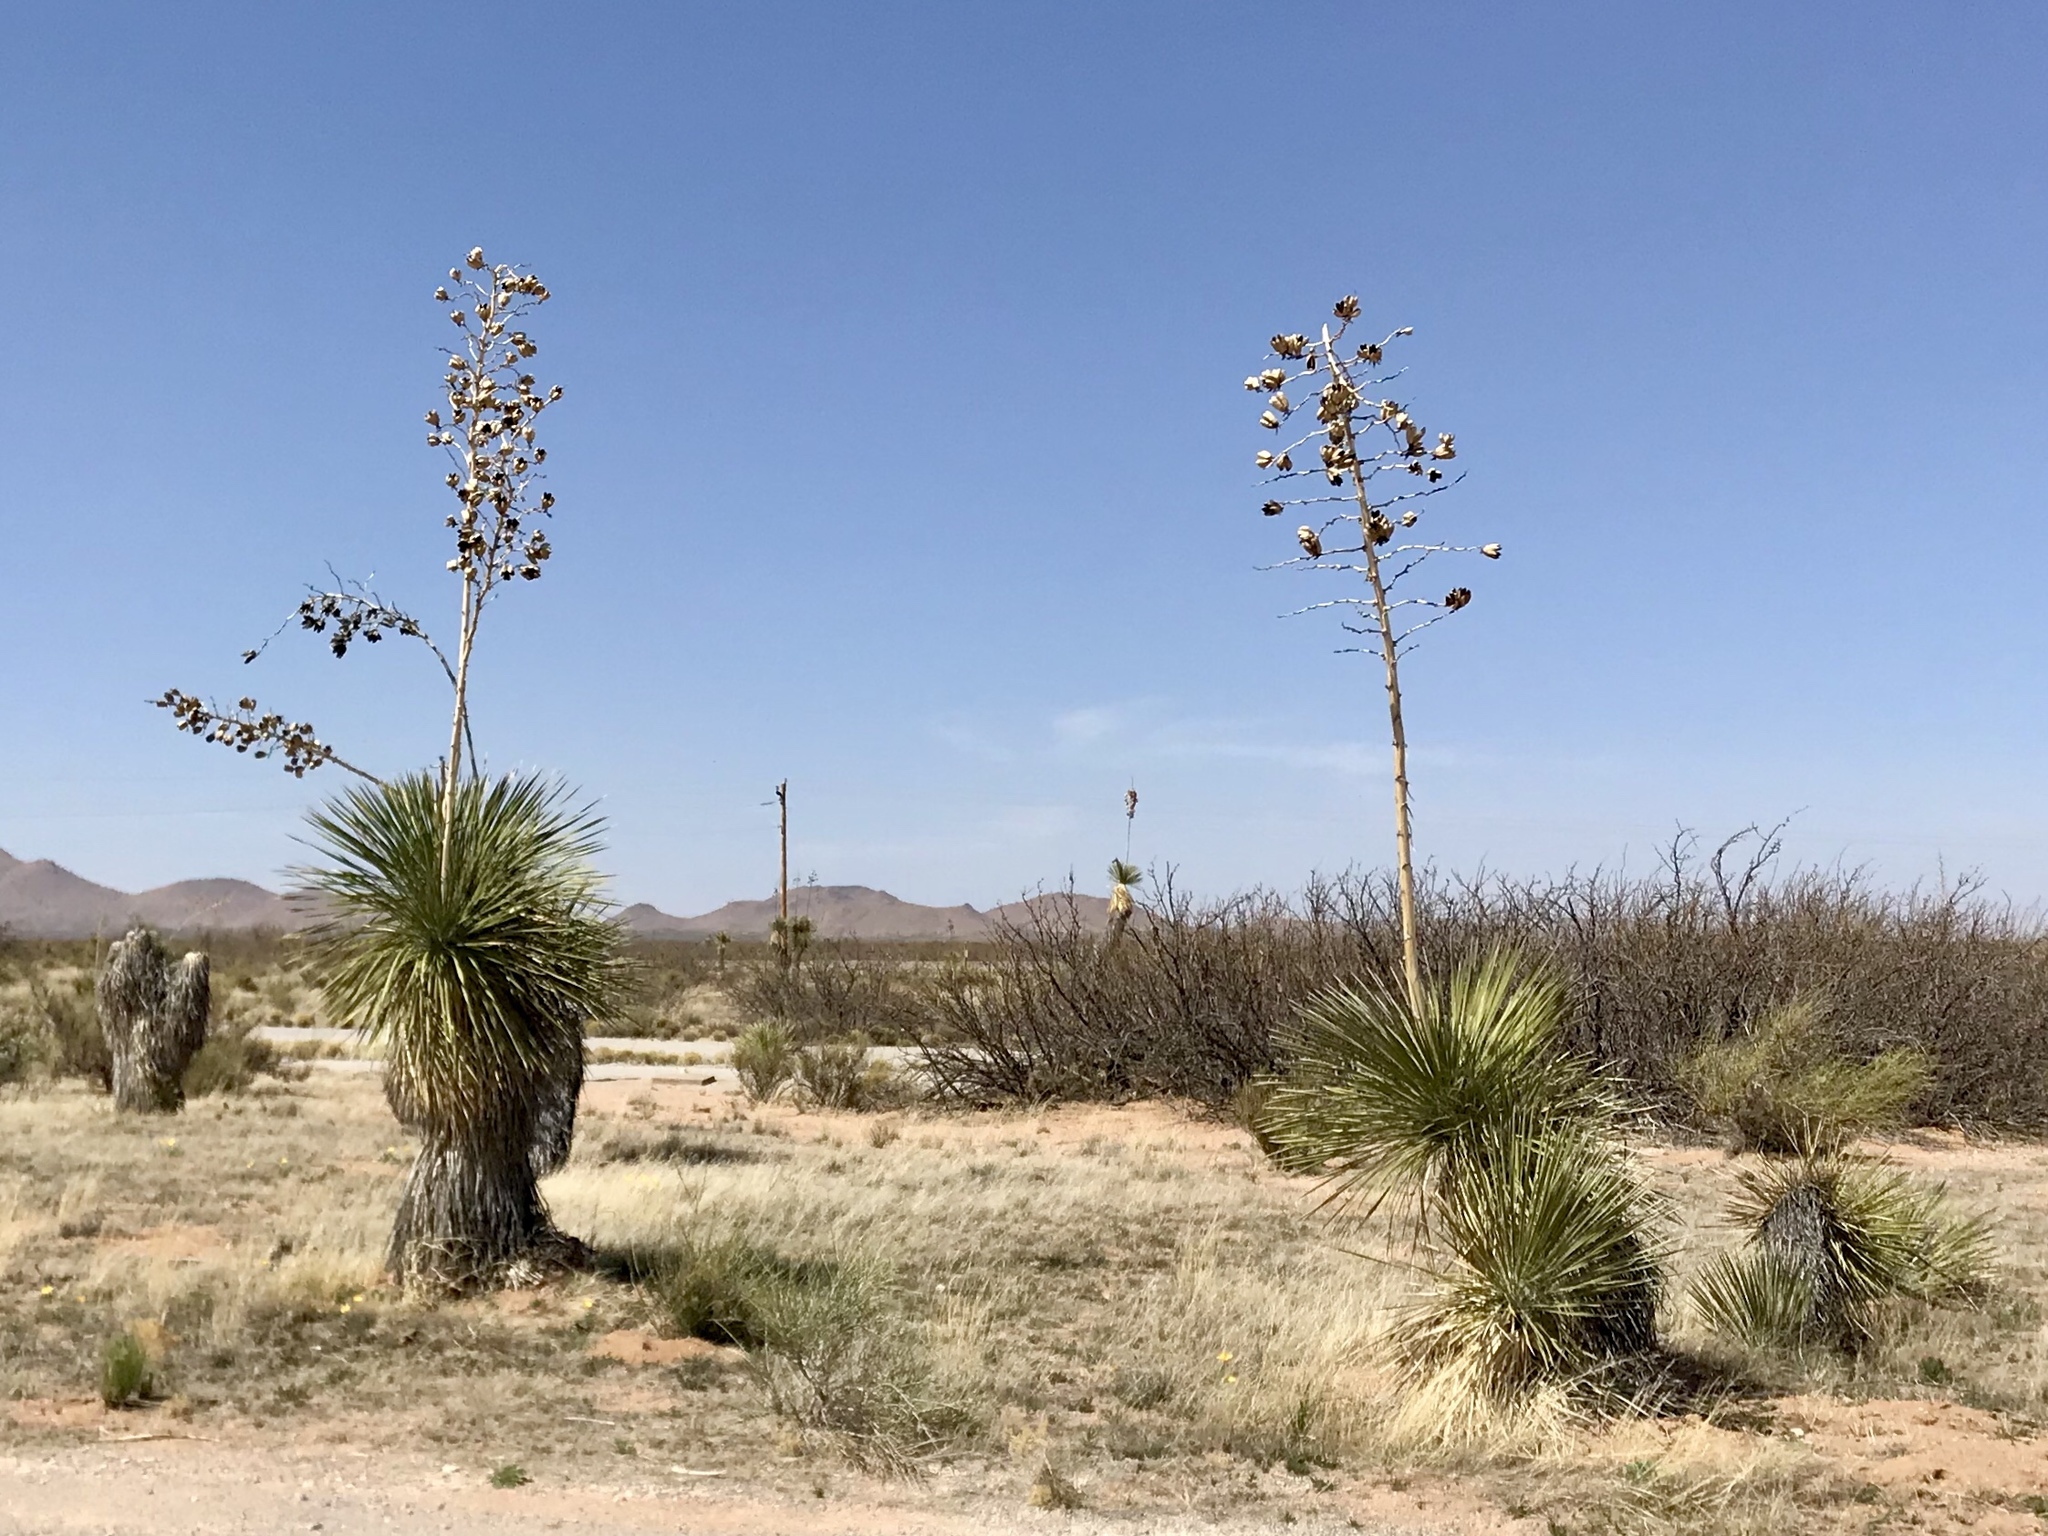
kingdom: Plantae
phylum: Tracheophyta
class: Liliopsida
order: Asparagales
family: Asparagaceae
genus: Yucca
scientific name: Yucca elata
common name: Palmella
